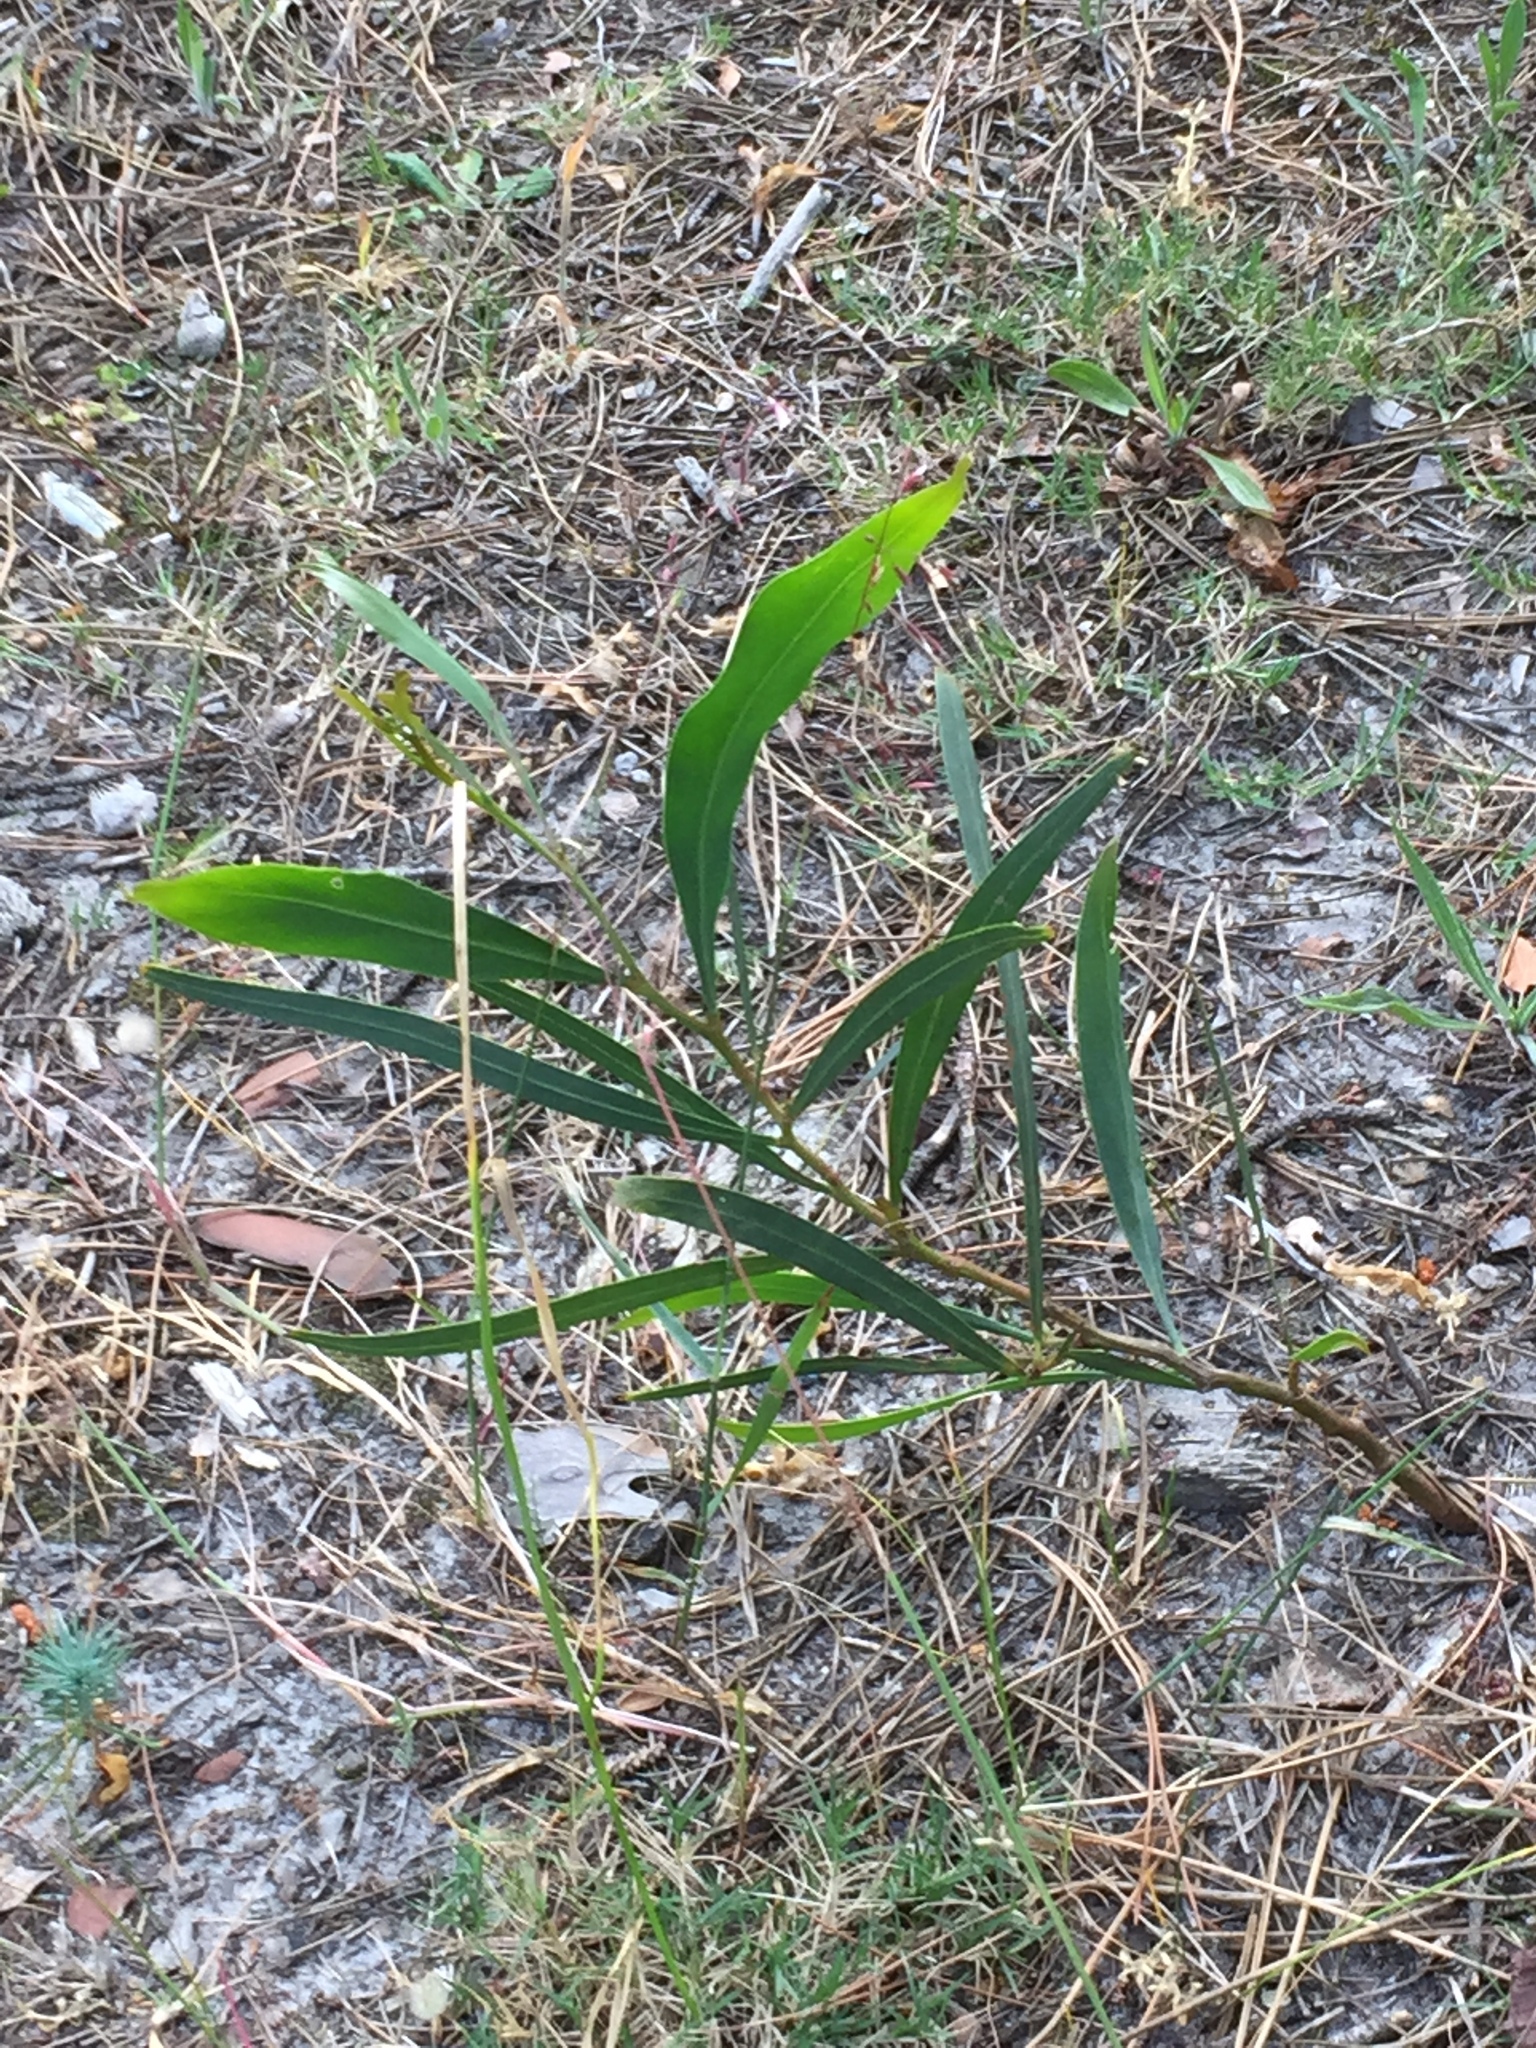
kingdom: Plantae
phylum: Tracheophyta
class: Magnoliopsida
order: Fabales
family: Fabaceae
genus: Acacia
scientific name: Acacia saligna
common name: Orange wattle
